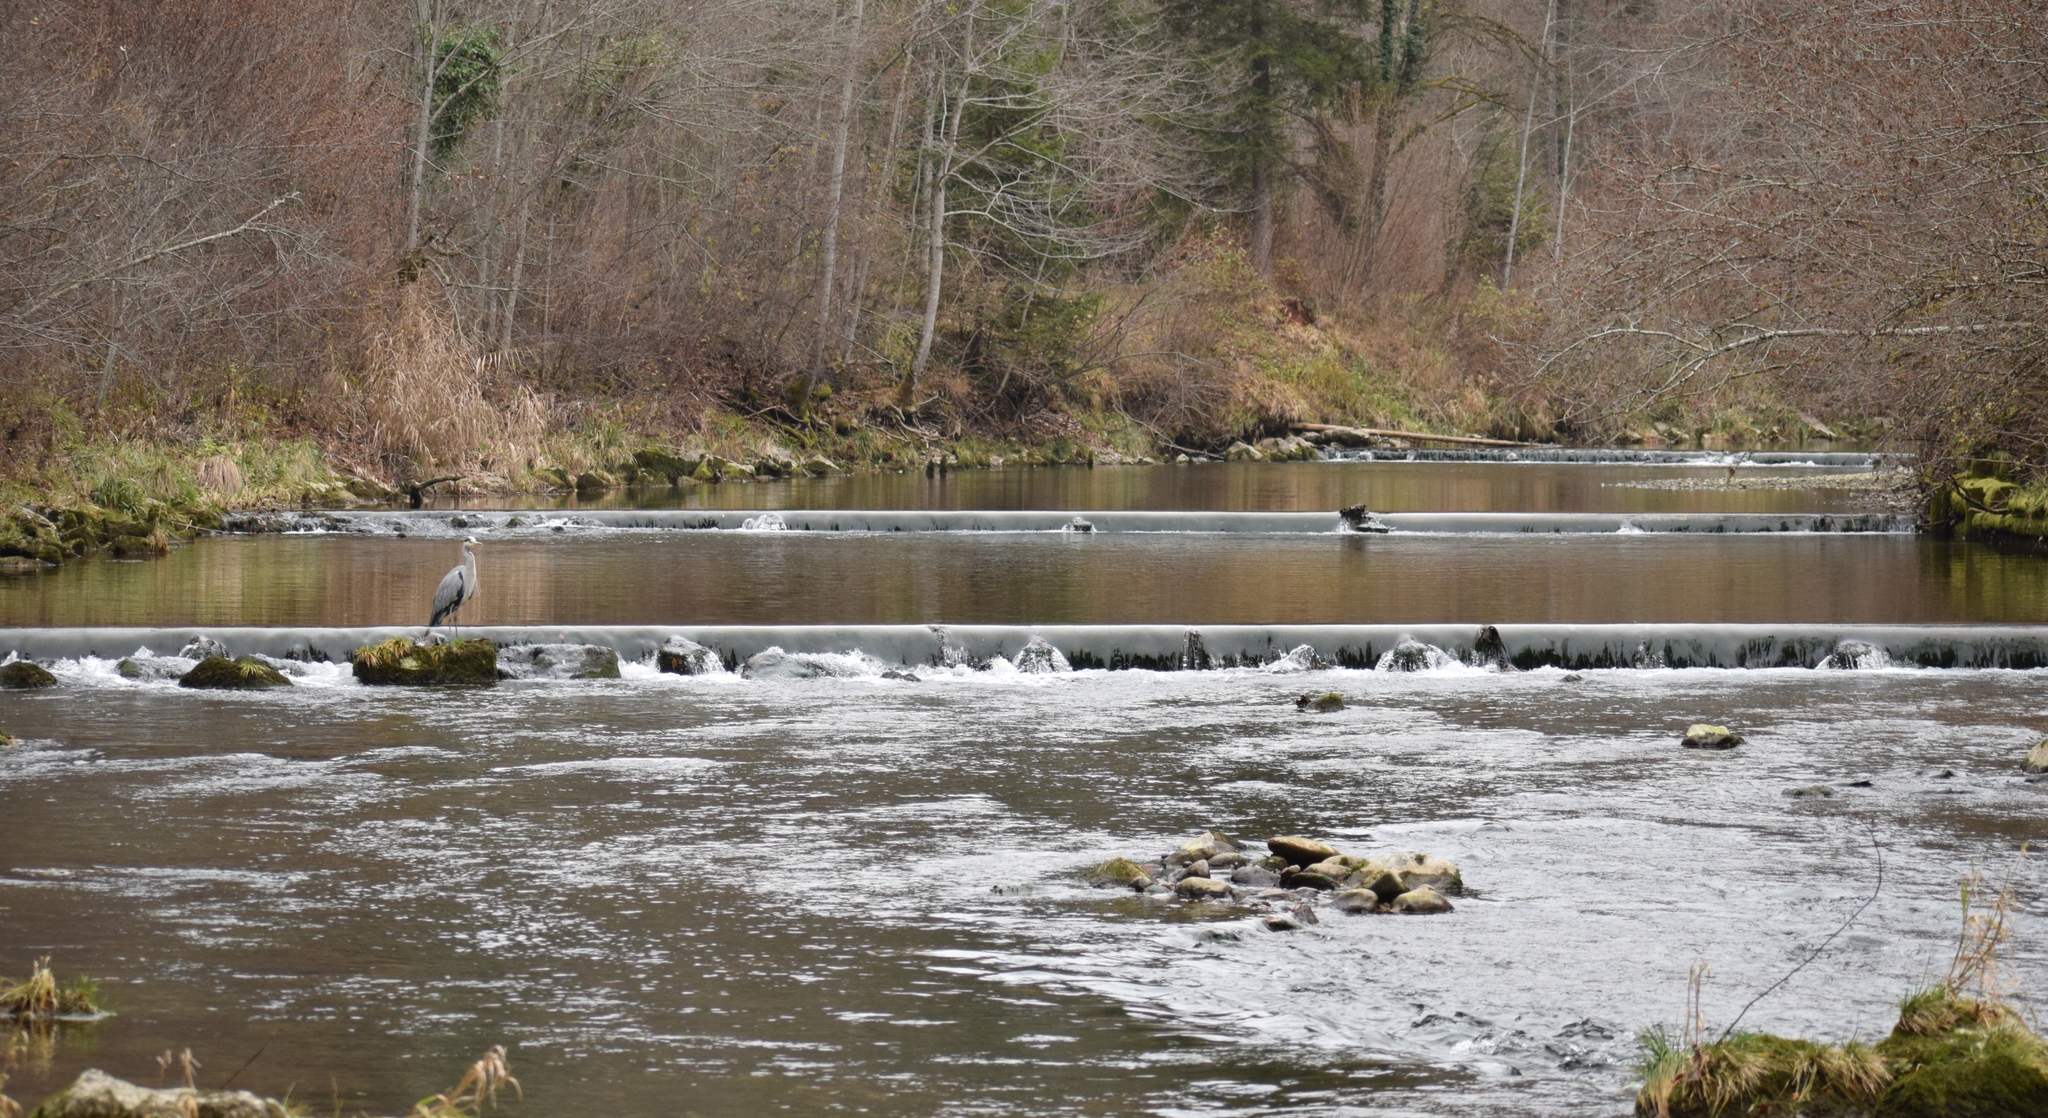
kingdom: Animalia
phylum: Chordata
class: Aves
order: Pelecaniformes
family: Ardeidae
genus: Ardea
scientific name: Ardea cinerea
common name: Grey heron
